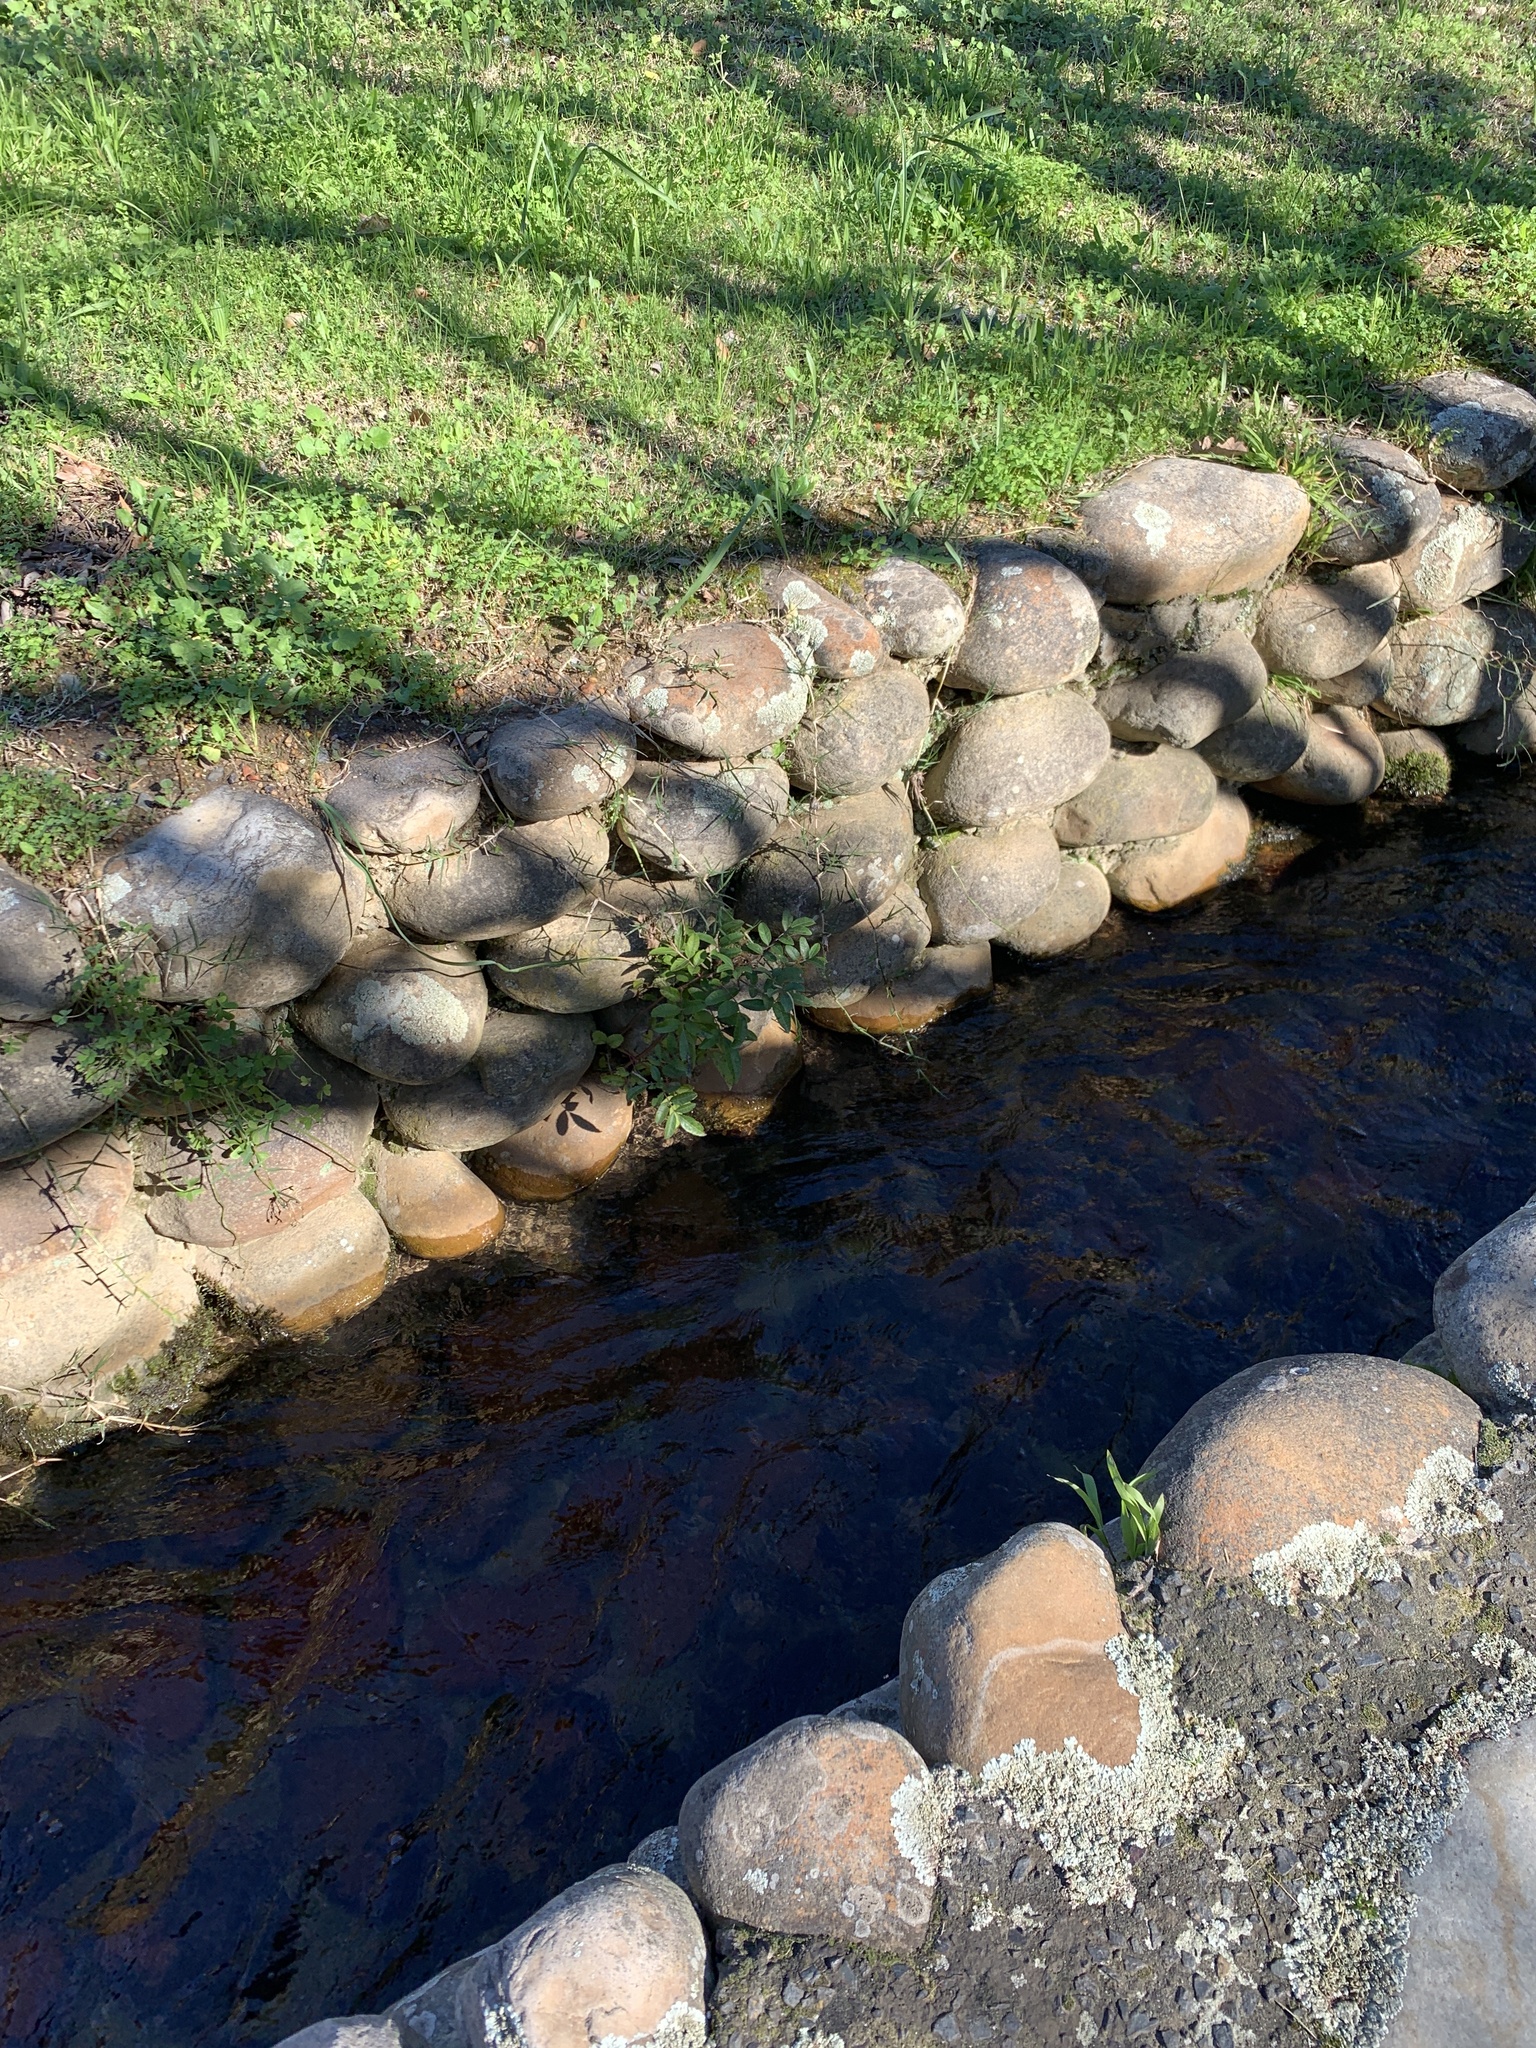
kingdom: Plantae
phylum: Tracheophyta
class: Magnoliopsida
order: Sapindales
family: Anacardiaceae
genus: Schinus
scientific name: Schinus terebinthifolia
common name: Brazilian peppertree
